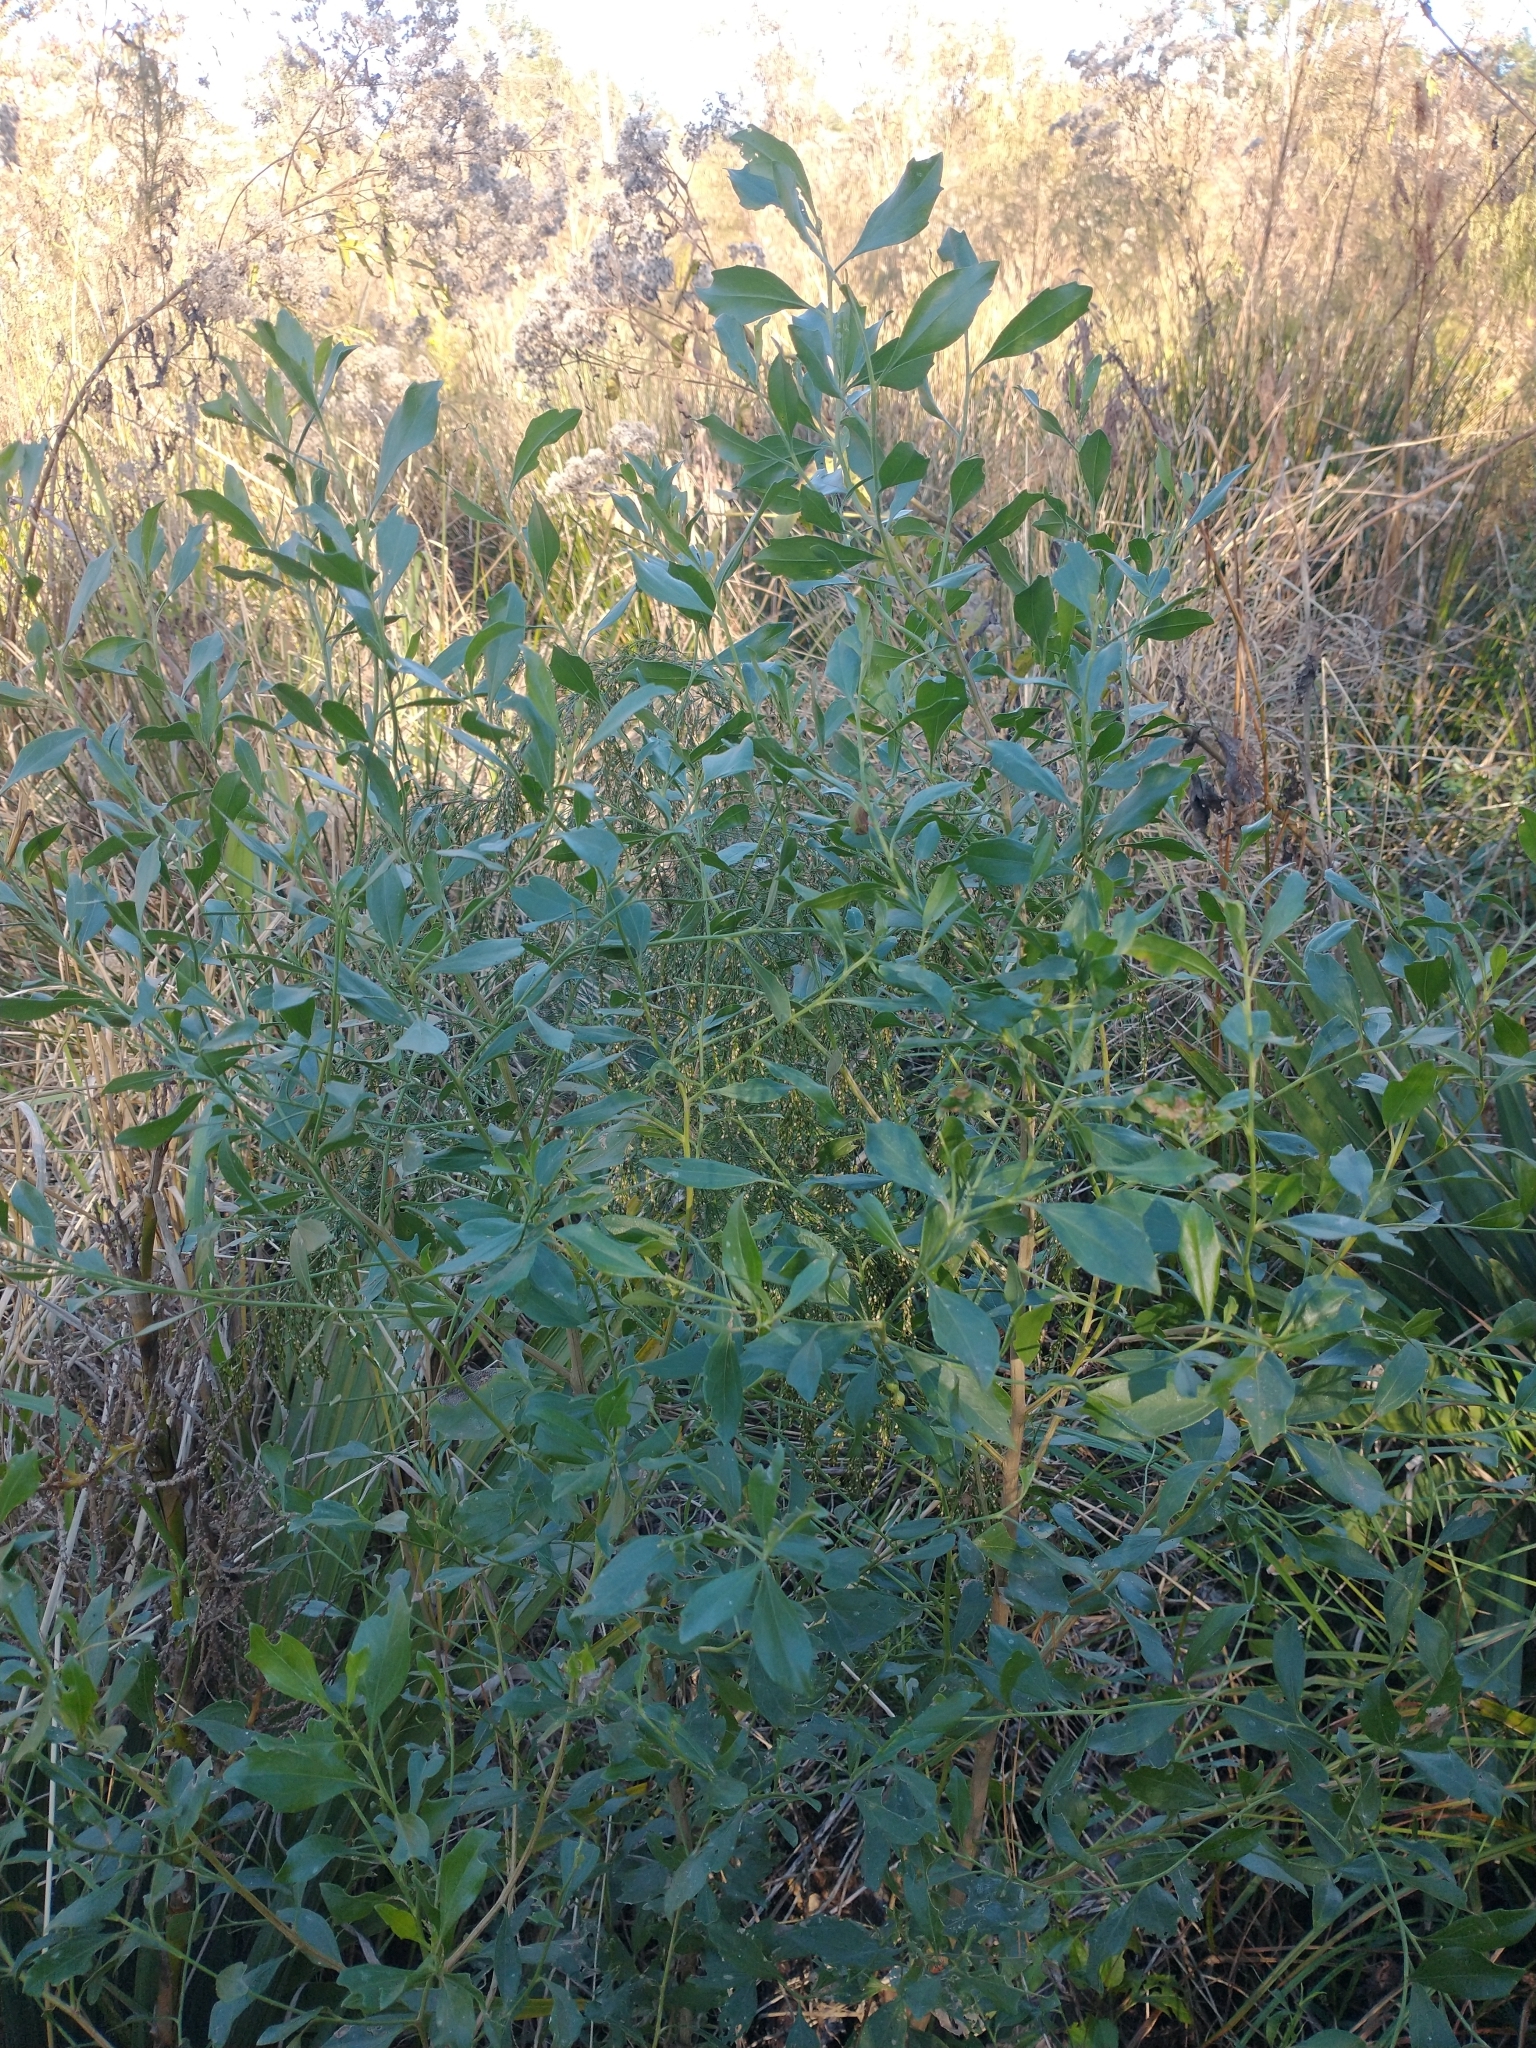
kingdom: Plantae
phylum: Tracheophyta
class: Magnoliopsida
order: Asterales
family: Asteraceae
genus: Baccharis
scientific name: Baccharis halimifolia
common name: Eastern baccharis
